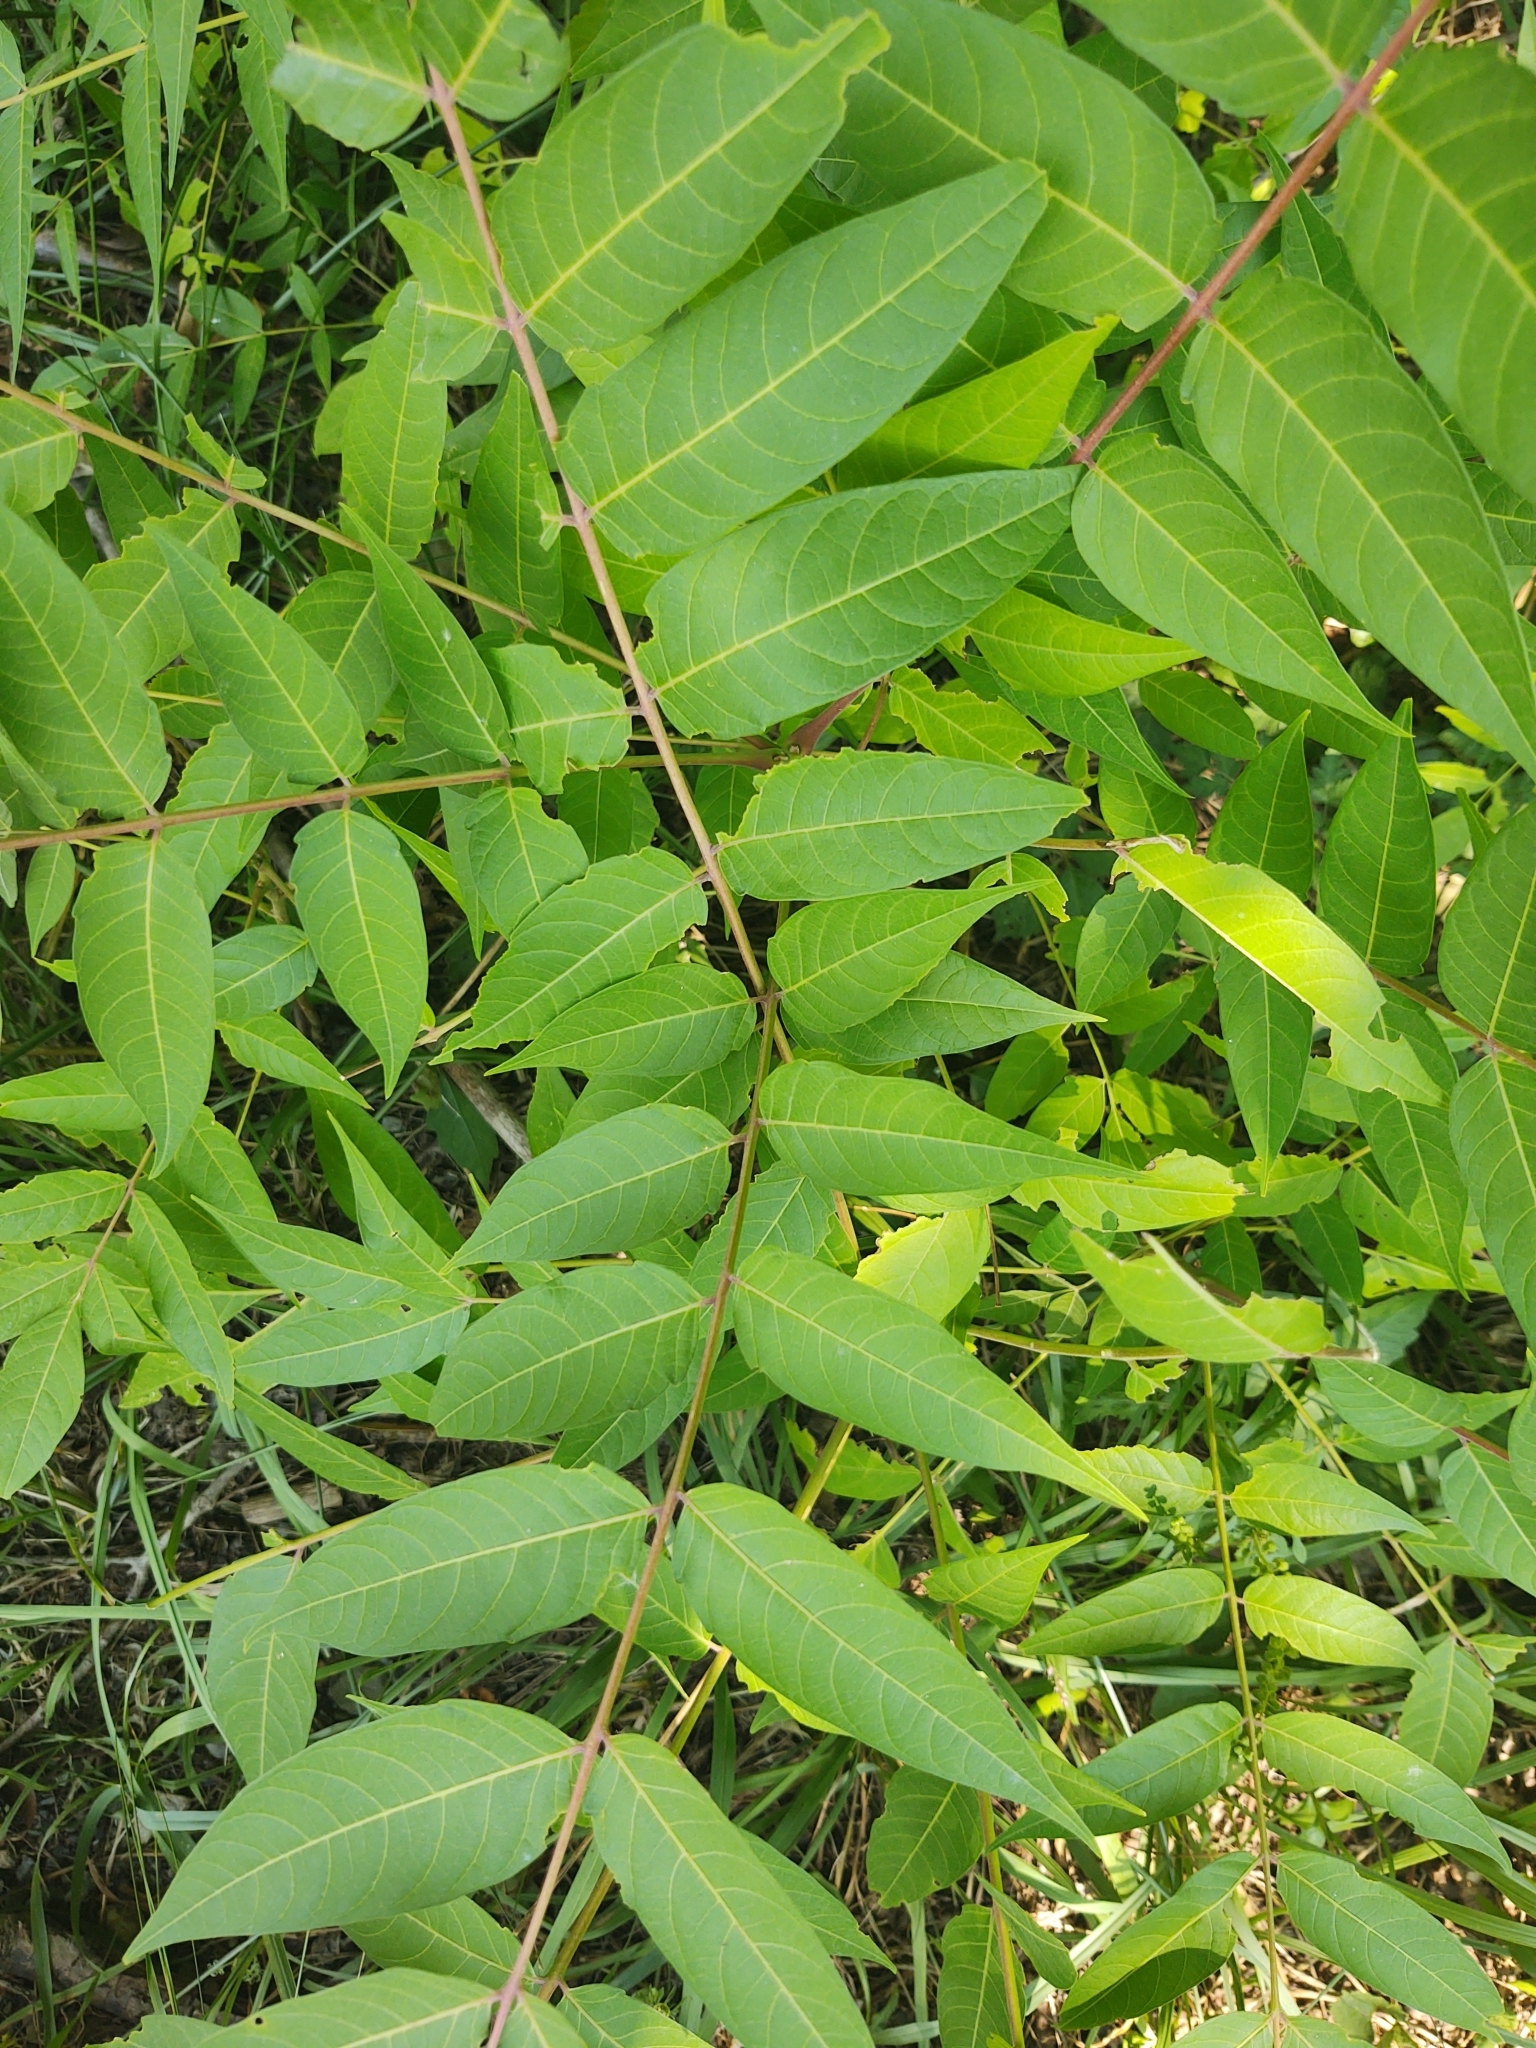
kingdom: Plantae
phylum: Tracheophyta
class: Magnoliopsida
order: Sapindales
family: Simaroubaceae
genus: Ailanthus
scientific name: Ailanthus altissima
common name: Tree-of-heaven
